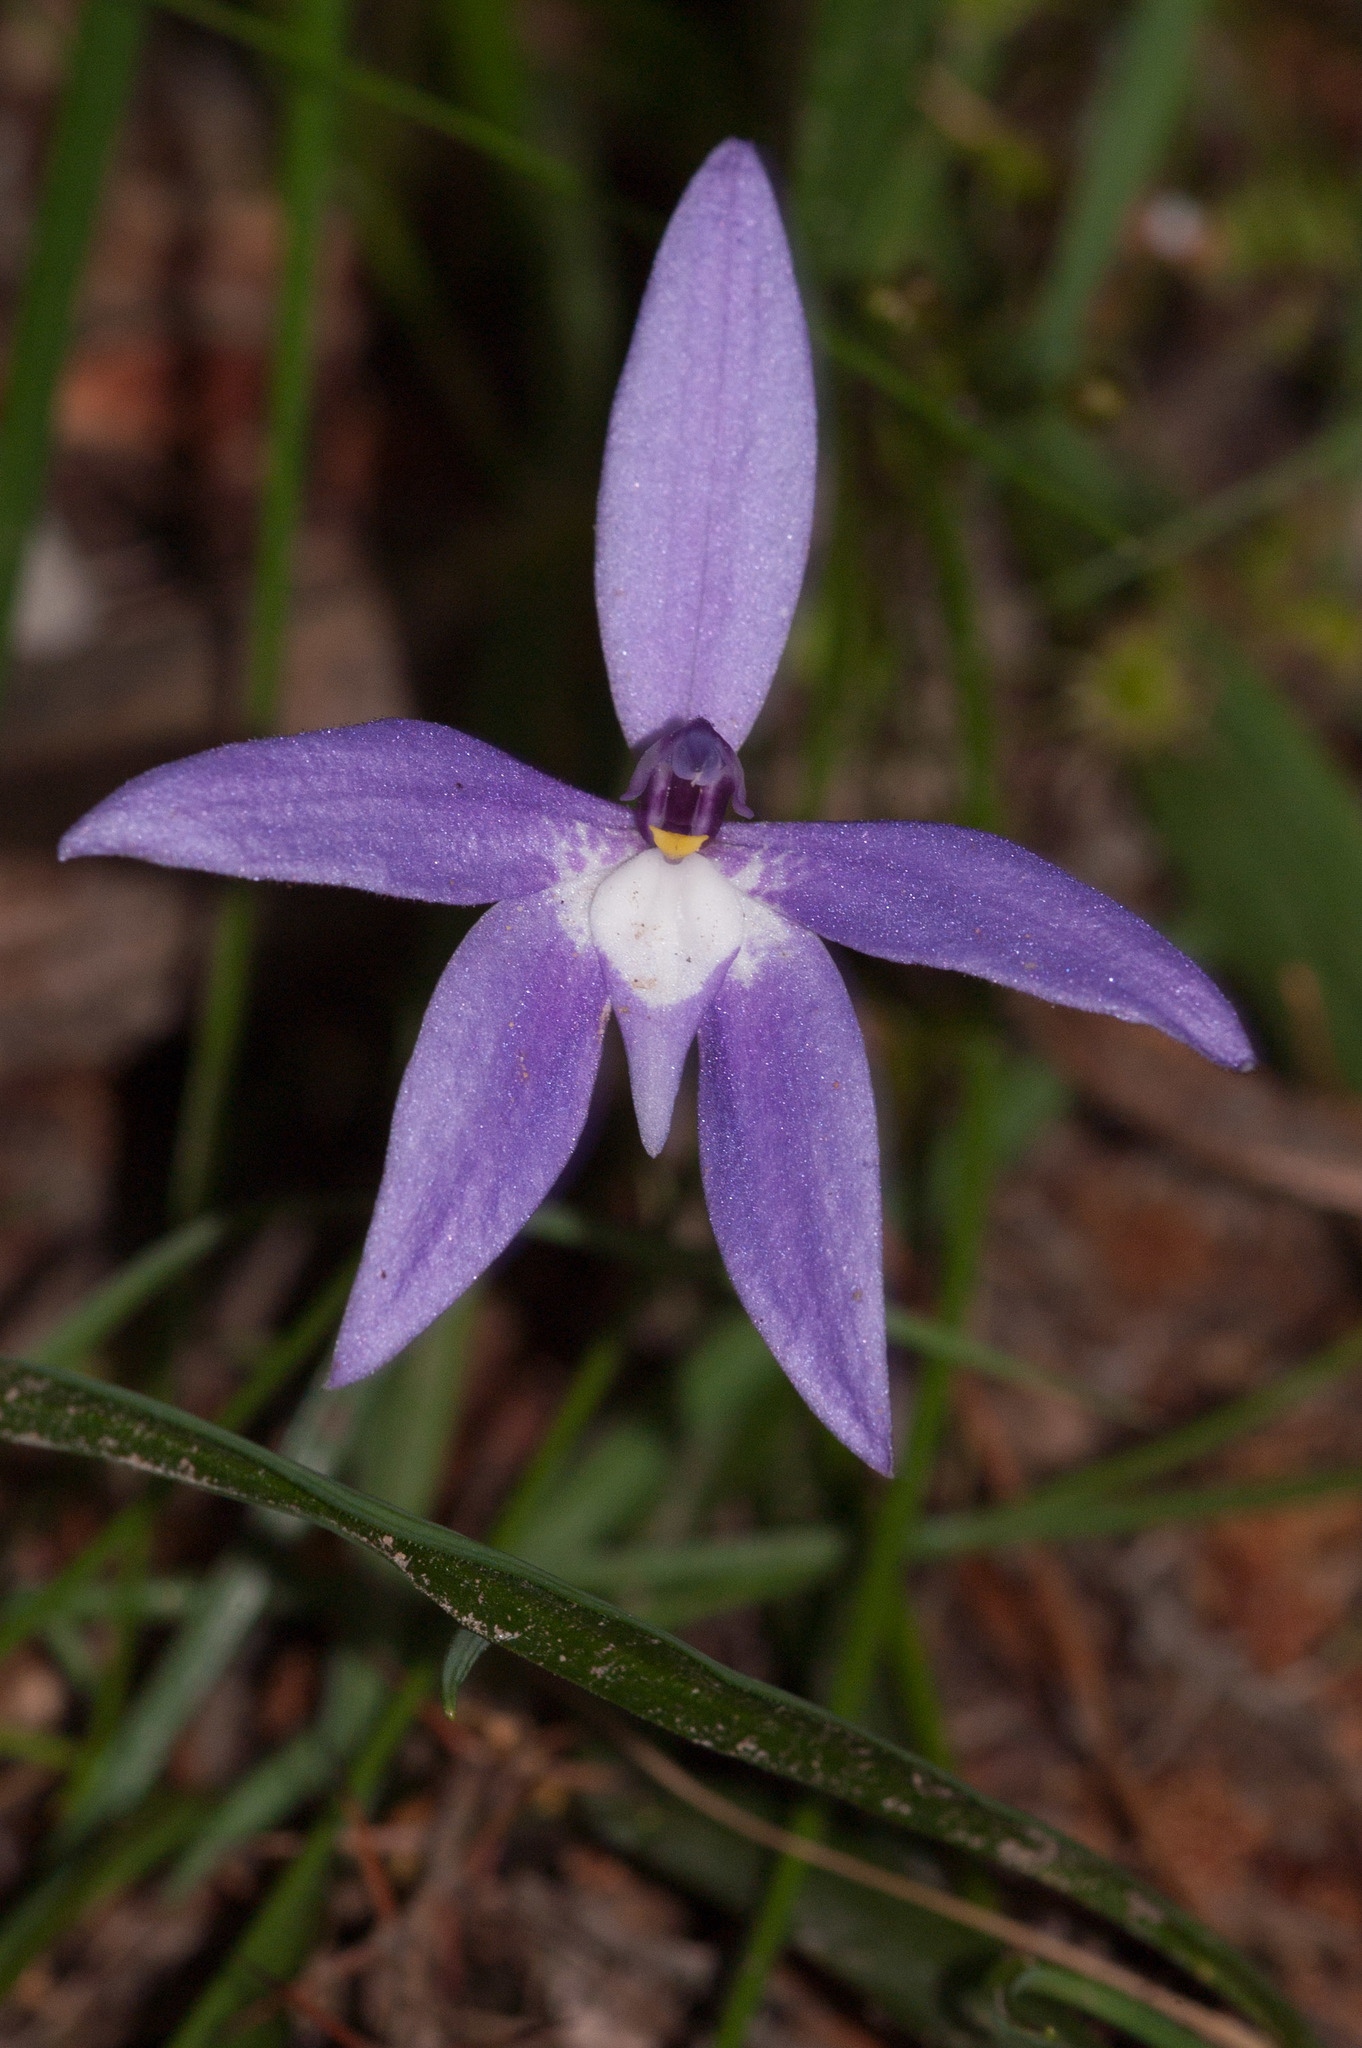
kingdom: Plantae
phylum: Tracheophyta
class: Liliopsida
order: Asparagales
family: Orchidaceae
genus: Caladenia
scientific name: Caladenia major
